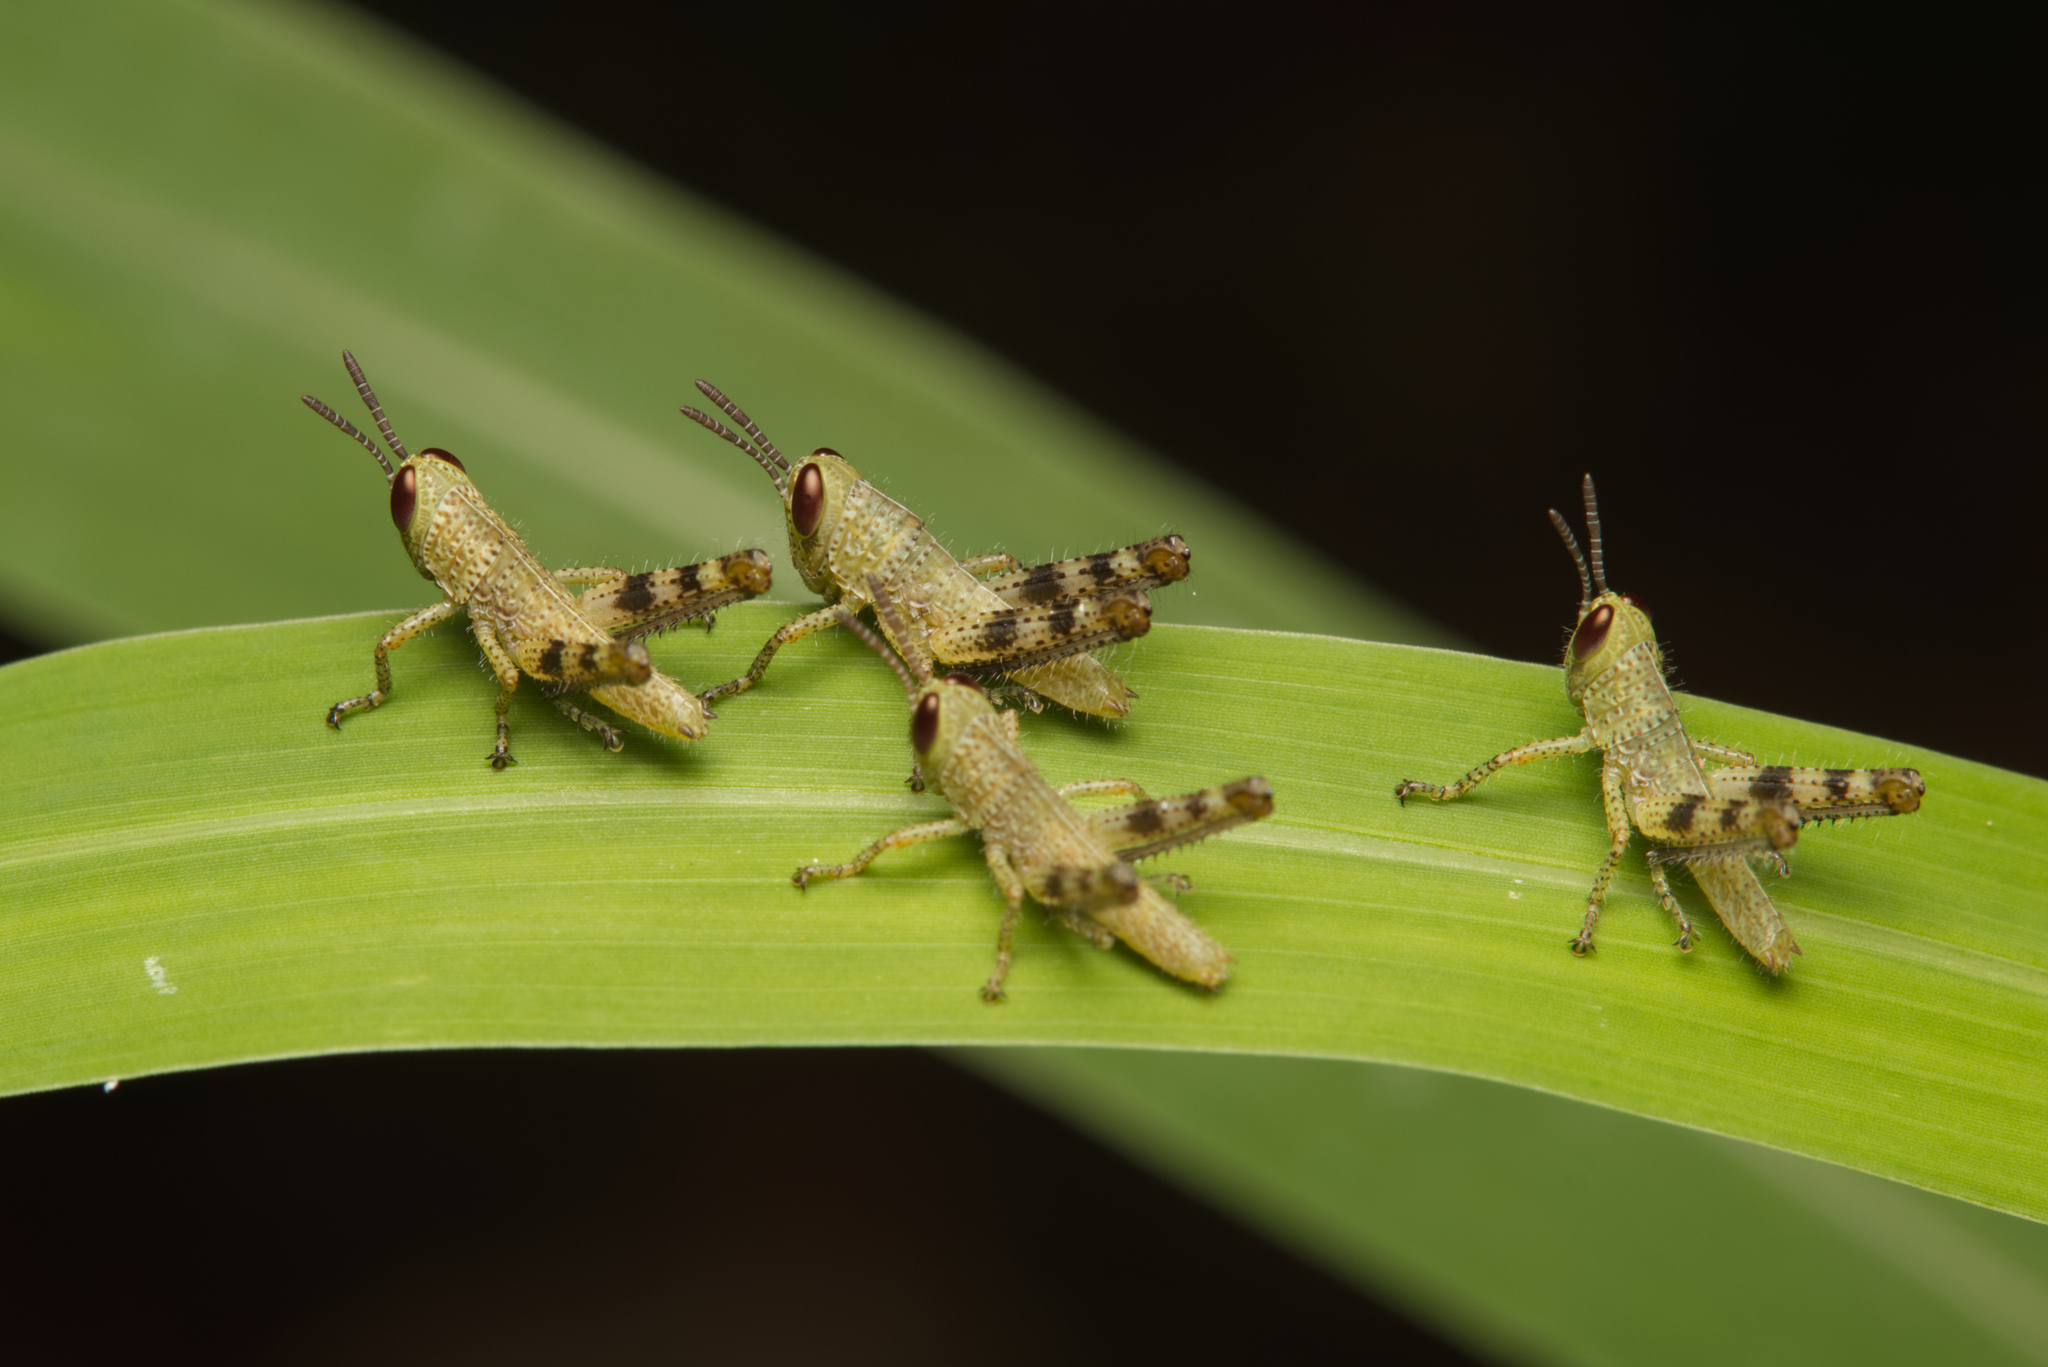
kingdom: Animalia
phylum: Arthropoda
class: Insecta
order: Orthoptera
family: Acrididae
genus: Valanga
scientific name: Valanga irregularis
